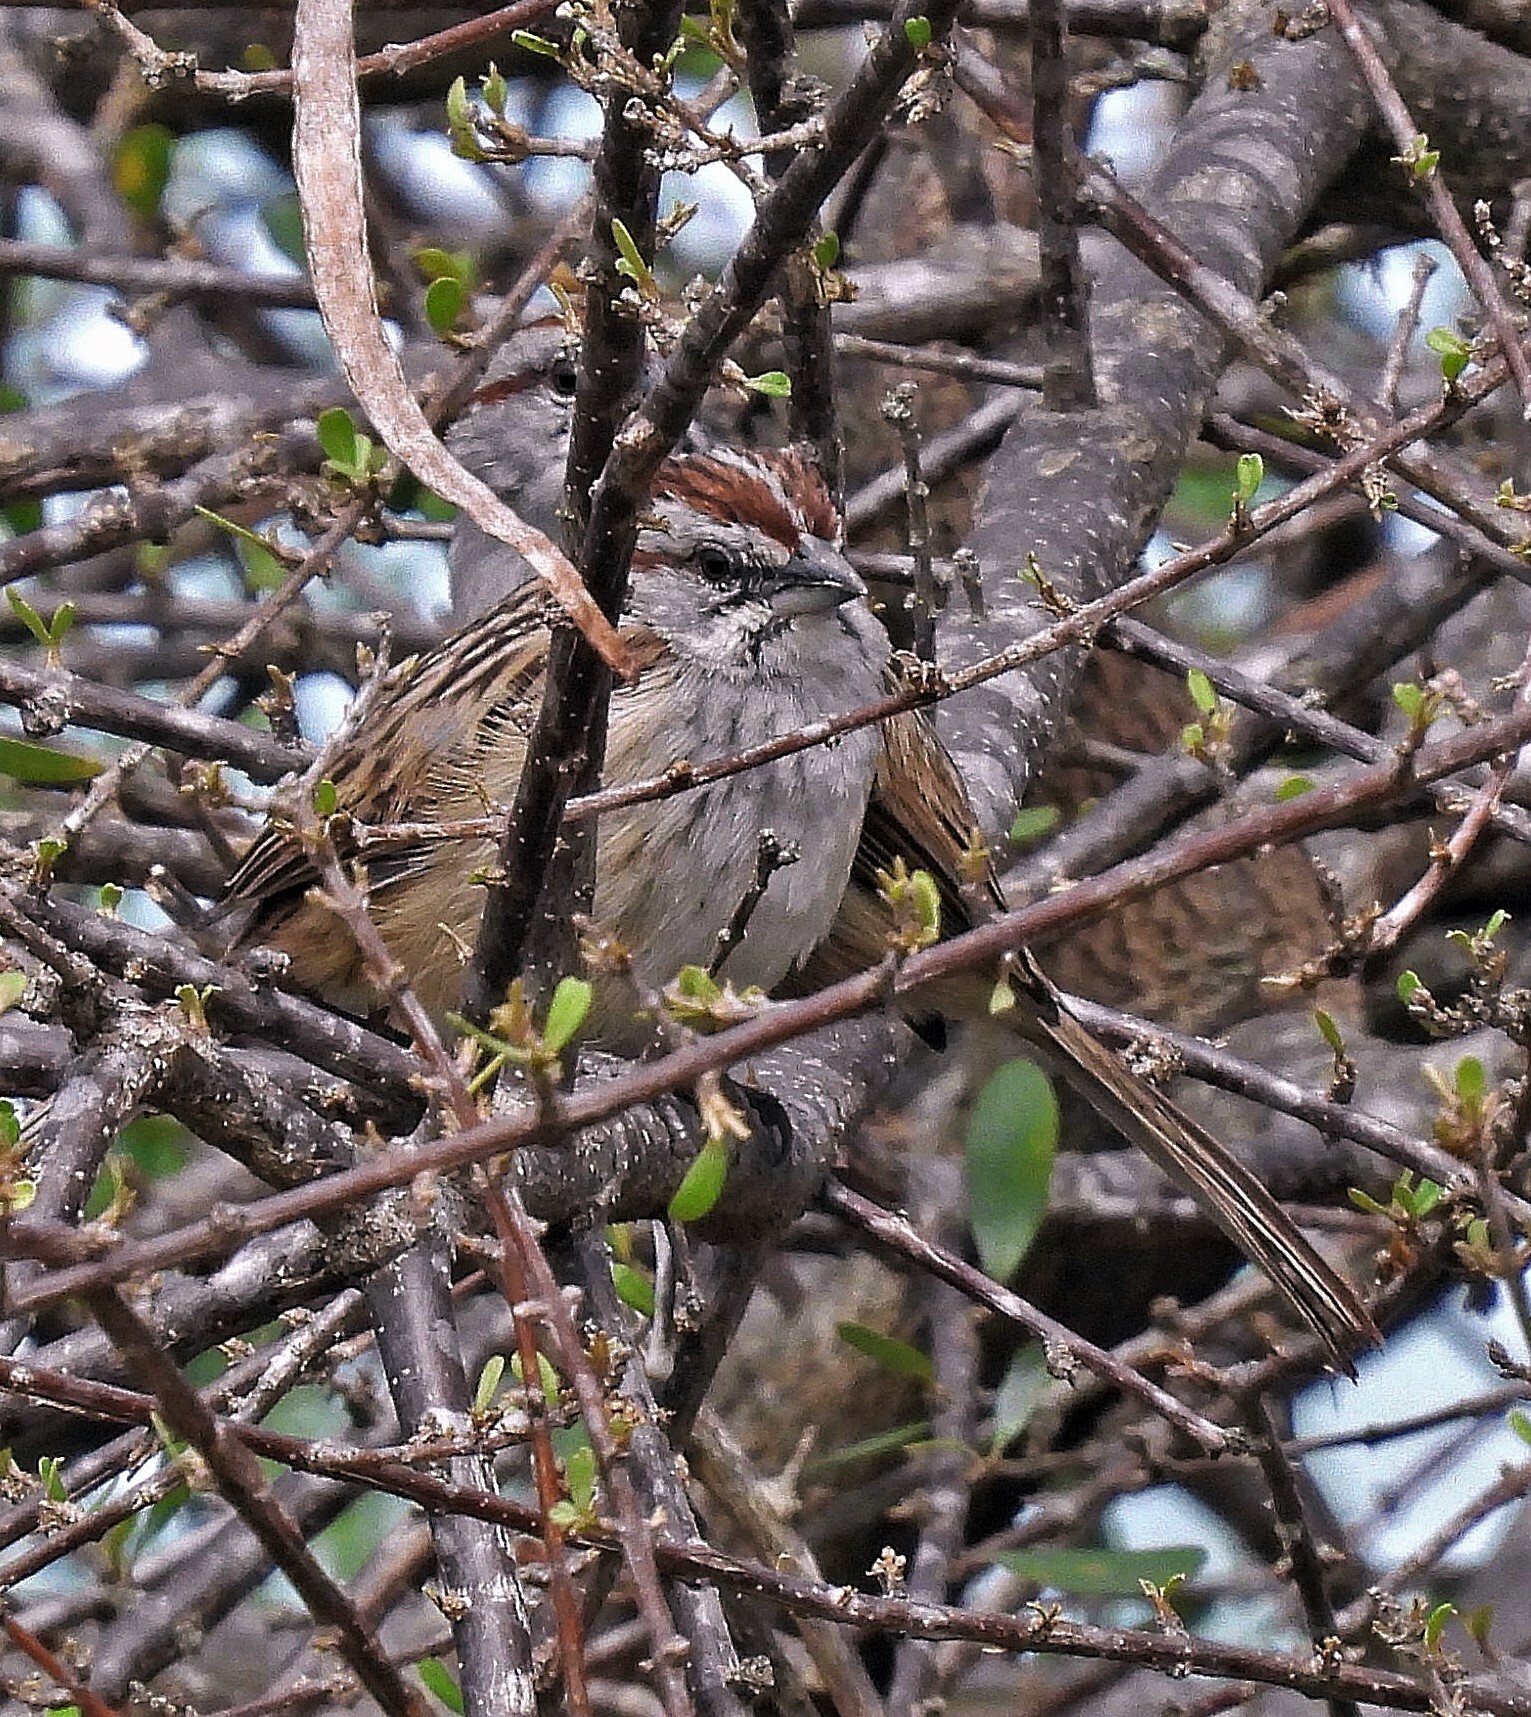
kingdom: Animalia
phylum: Chordata
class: Aves
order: Passeriformes
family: Passerellidae
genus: Rhynchospiza
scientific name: Rhynchospiza strigiceps
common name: Stripe-capped sparrow
